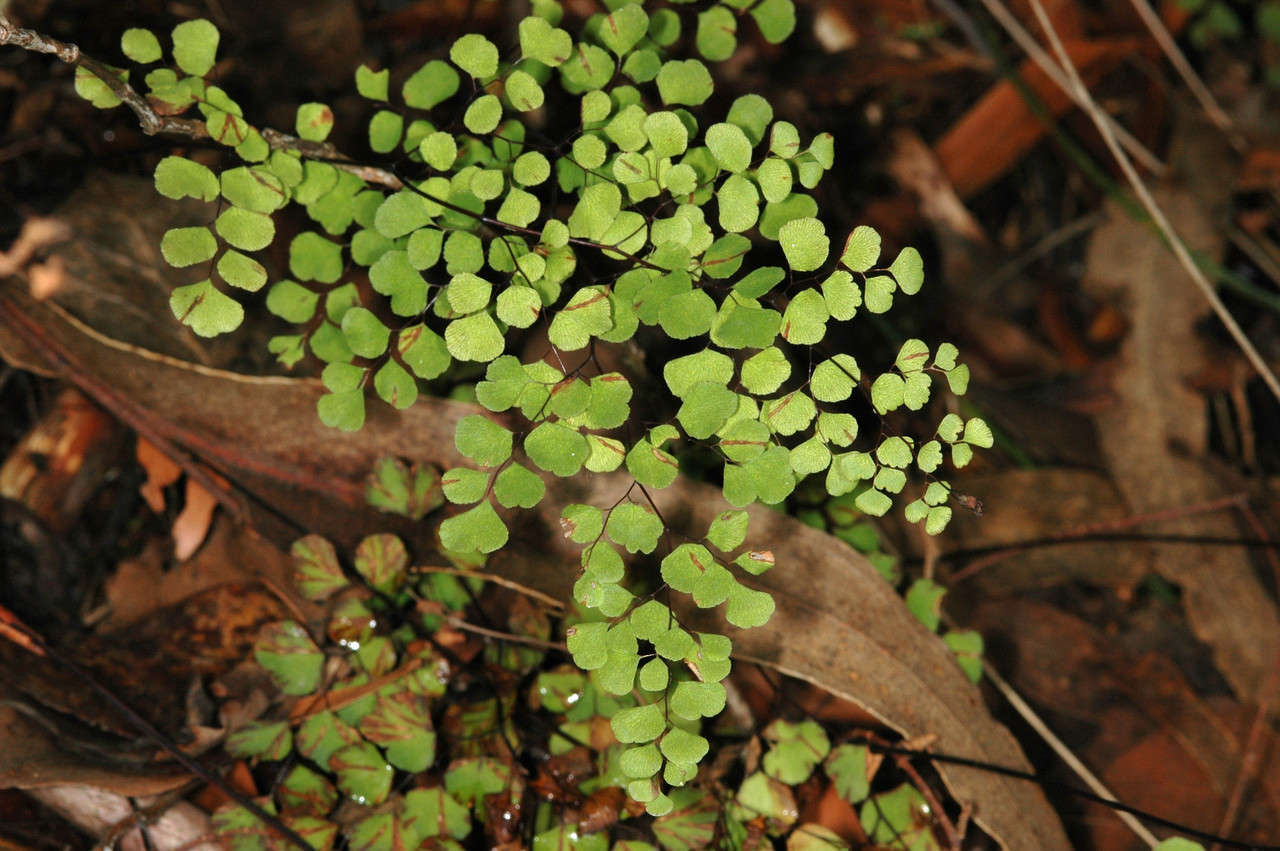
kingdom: Plantae
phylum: Tracheophyta
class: Polypodiopsida
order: Polypodiales
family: Pteridaceae
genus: Adiantum
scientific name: Adiantum aethiopicum
